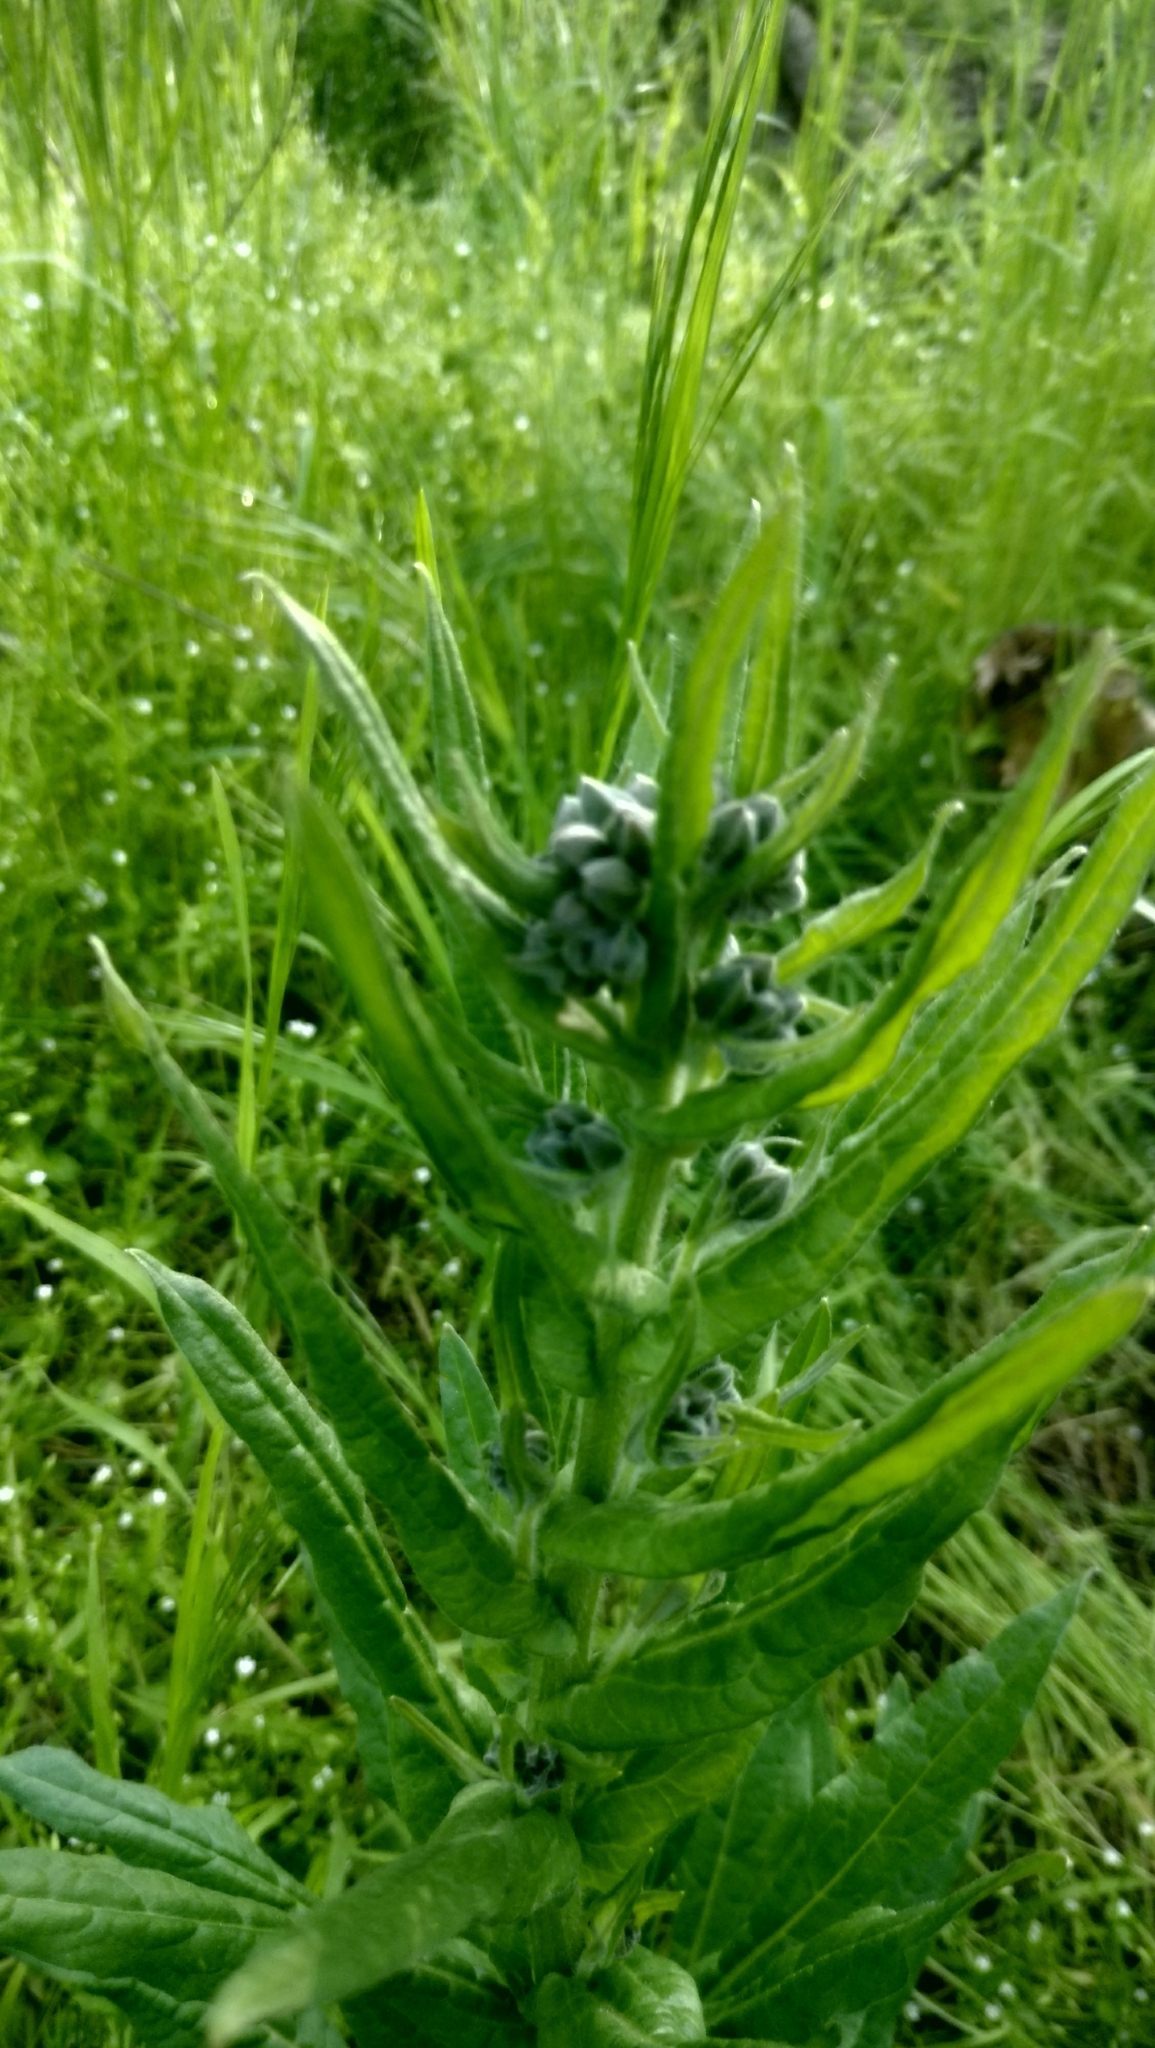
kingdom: Plantae
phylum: Tracheophyta
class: Magnoliopsida
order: Boraginales
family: Boraginaceae
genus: Cynoglossum
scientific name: Cynoglossum officinale
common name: Hound's-tongue
